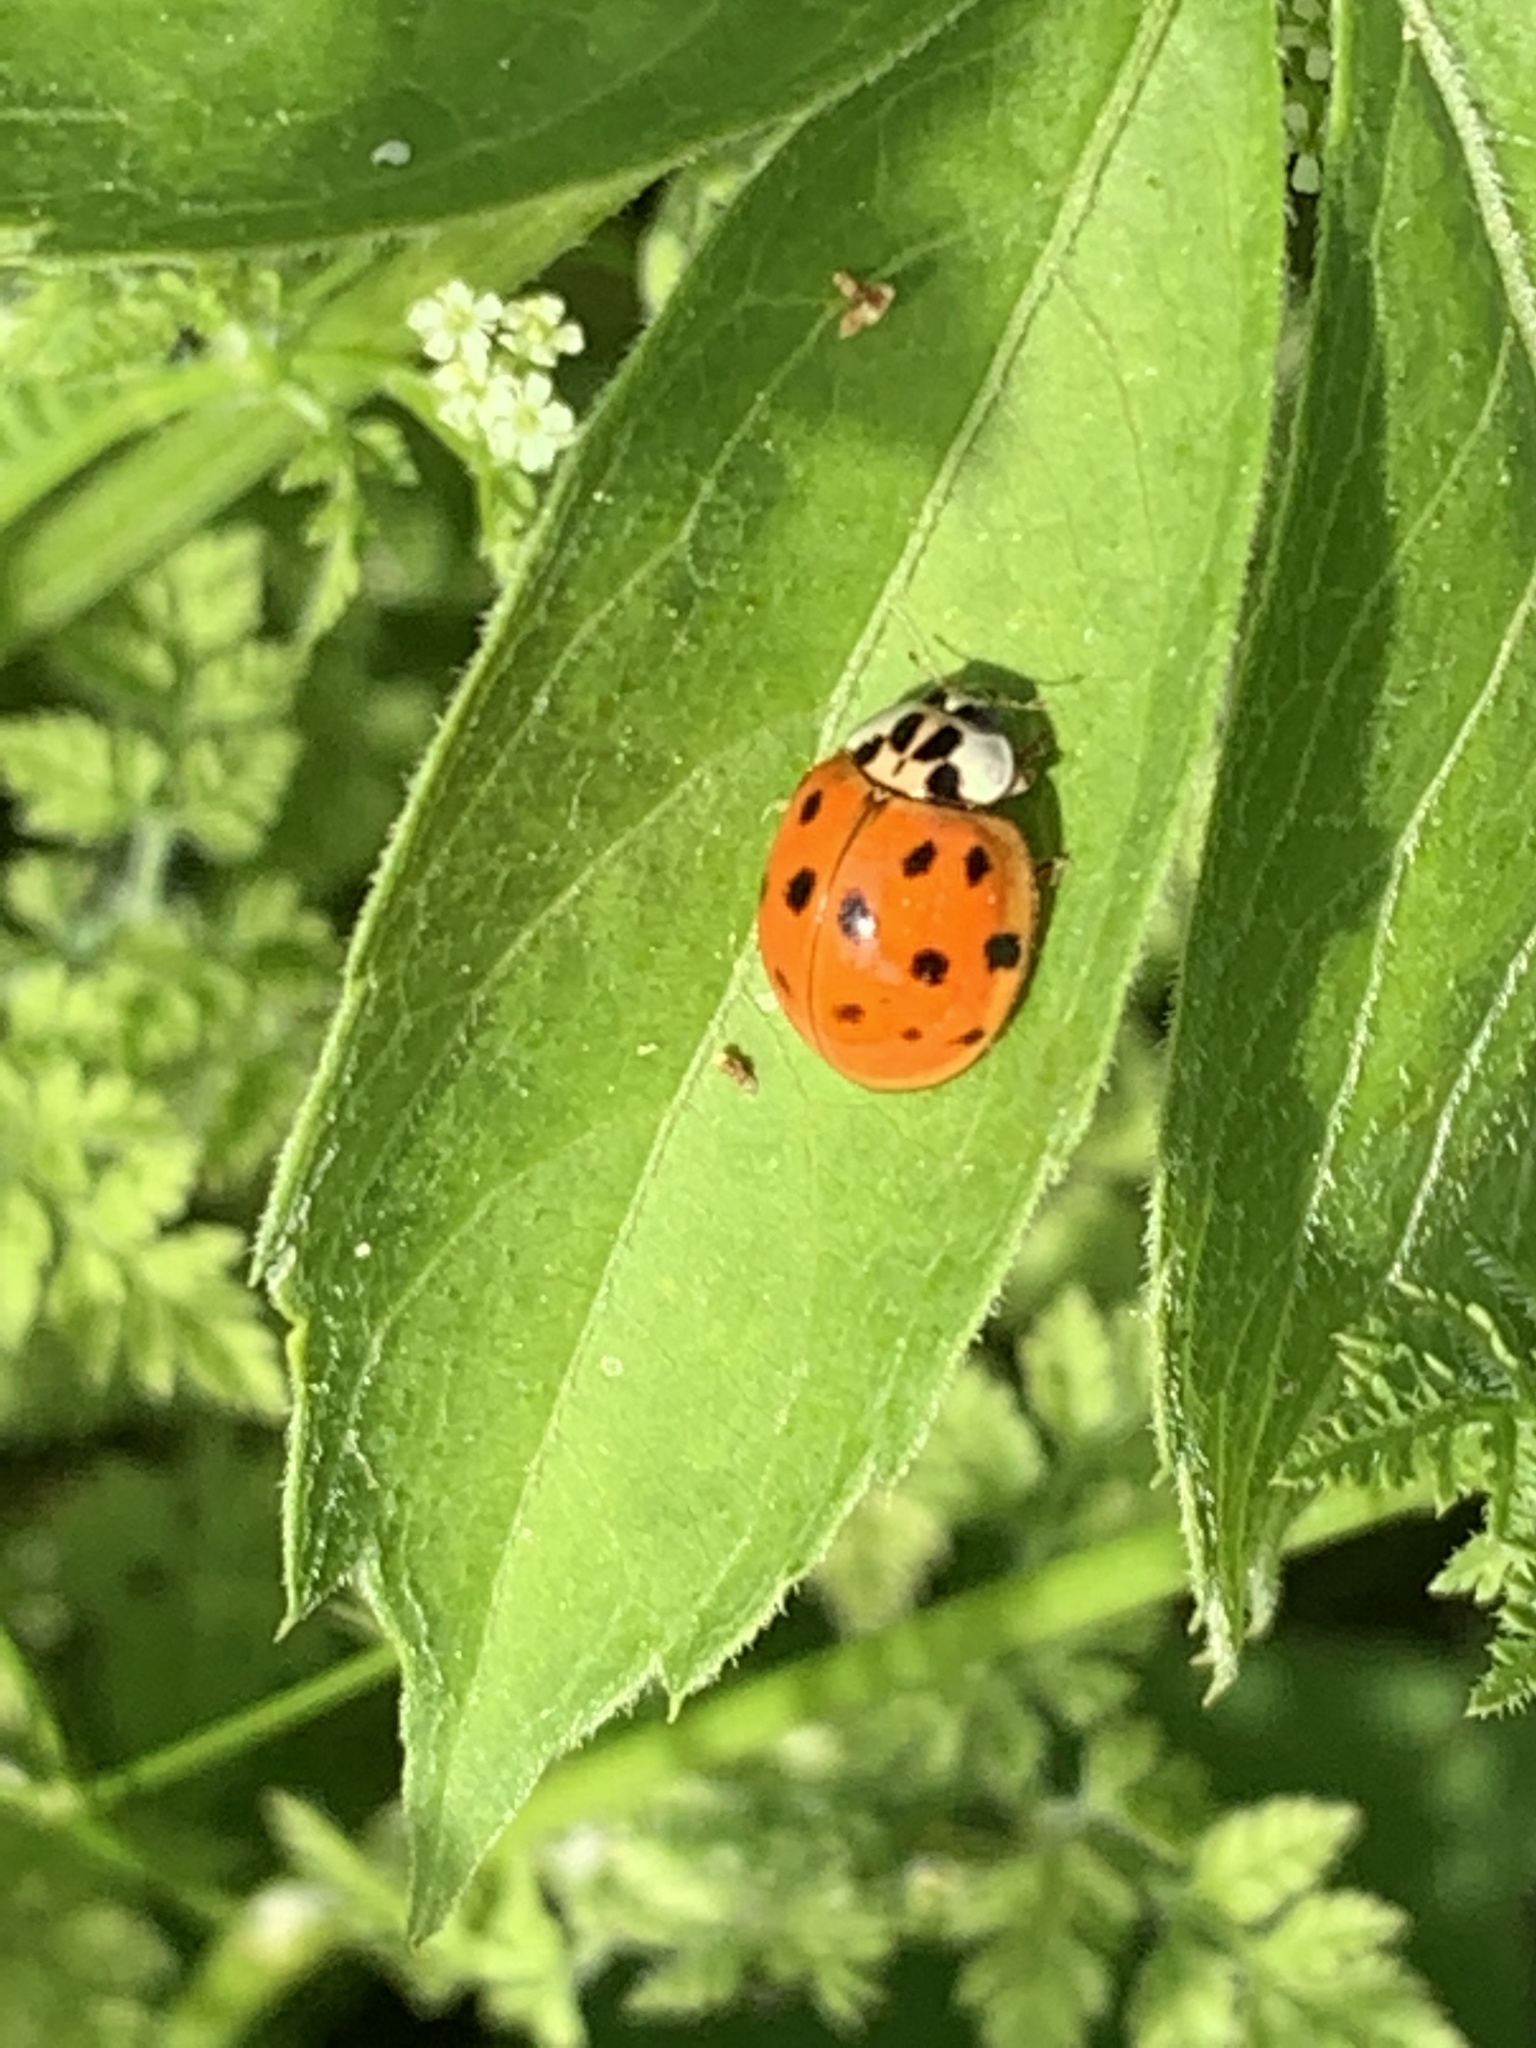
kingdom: Animalia
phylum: Arthropoda
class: Insecta
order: Coleoptera
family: Coccinellidae
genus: Harmonia
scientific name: Harmonia axyridis
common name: Harlequin ladybird
